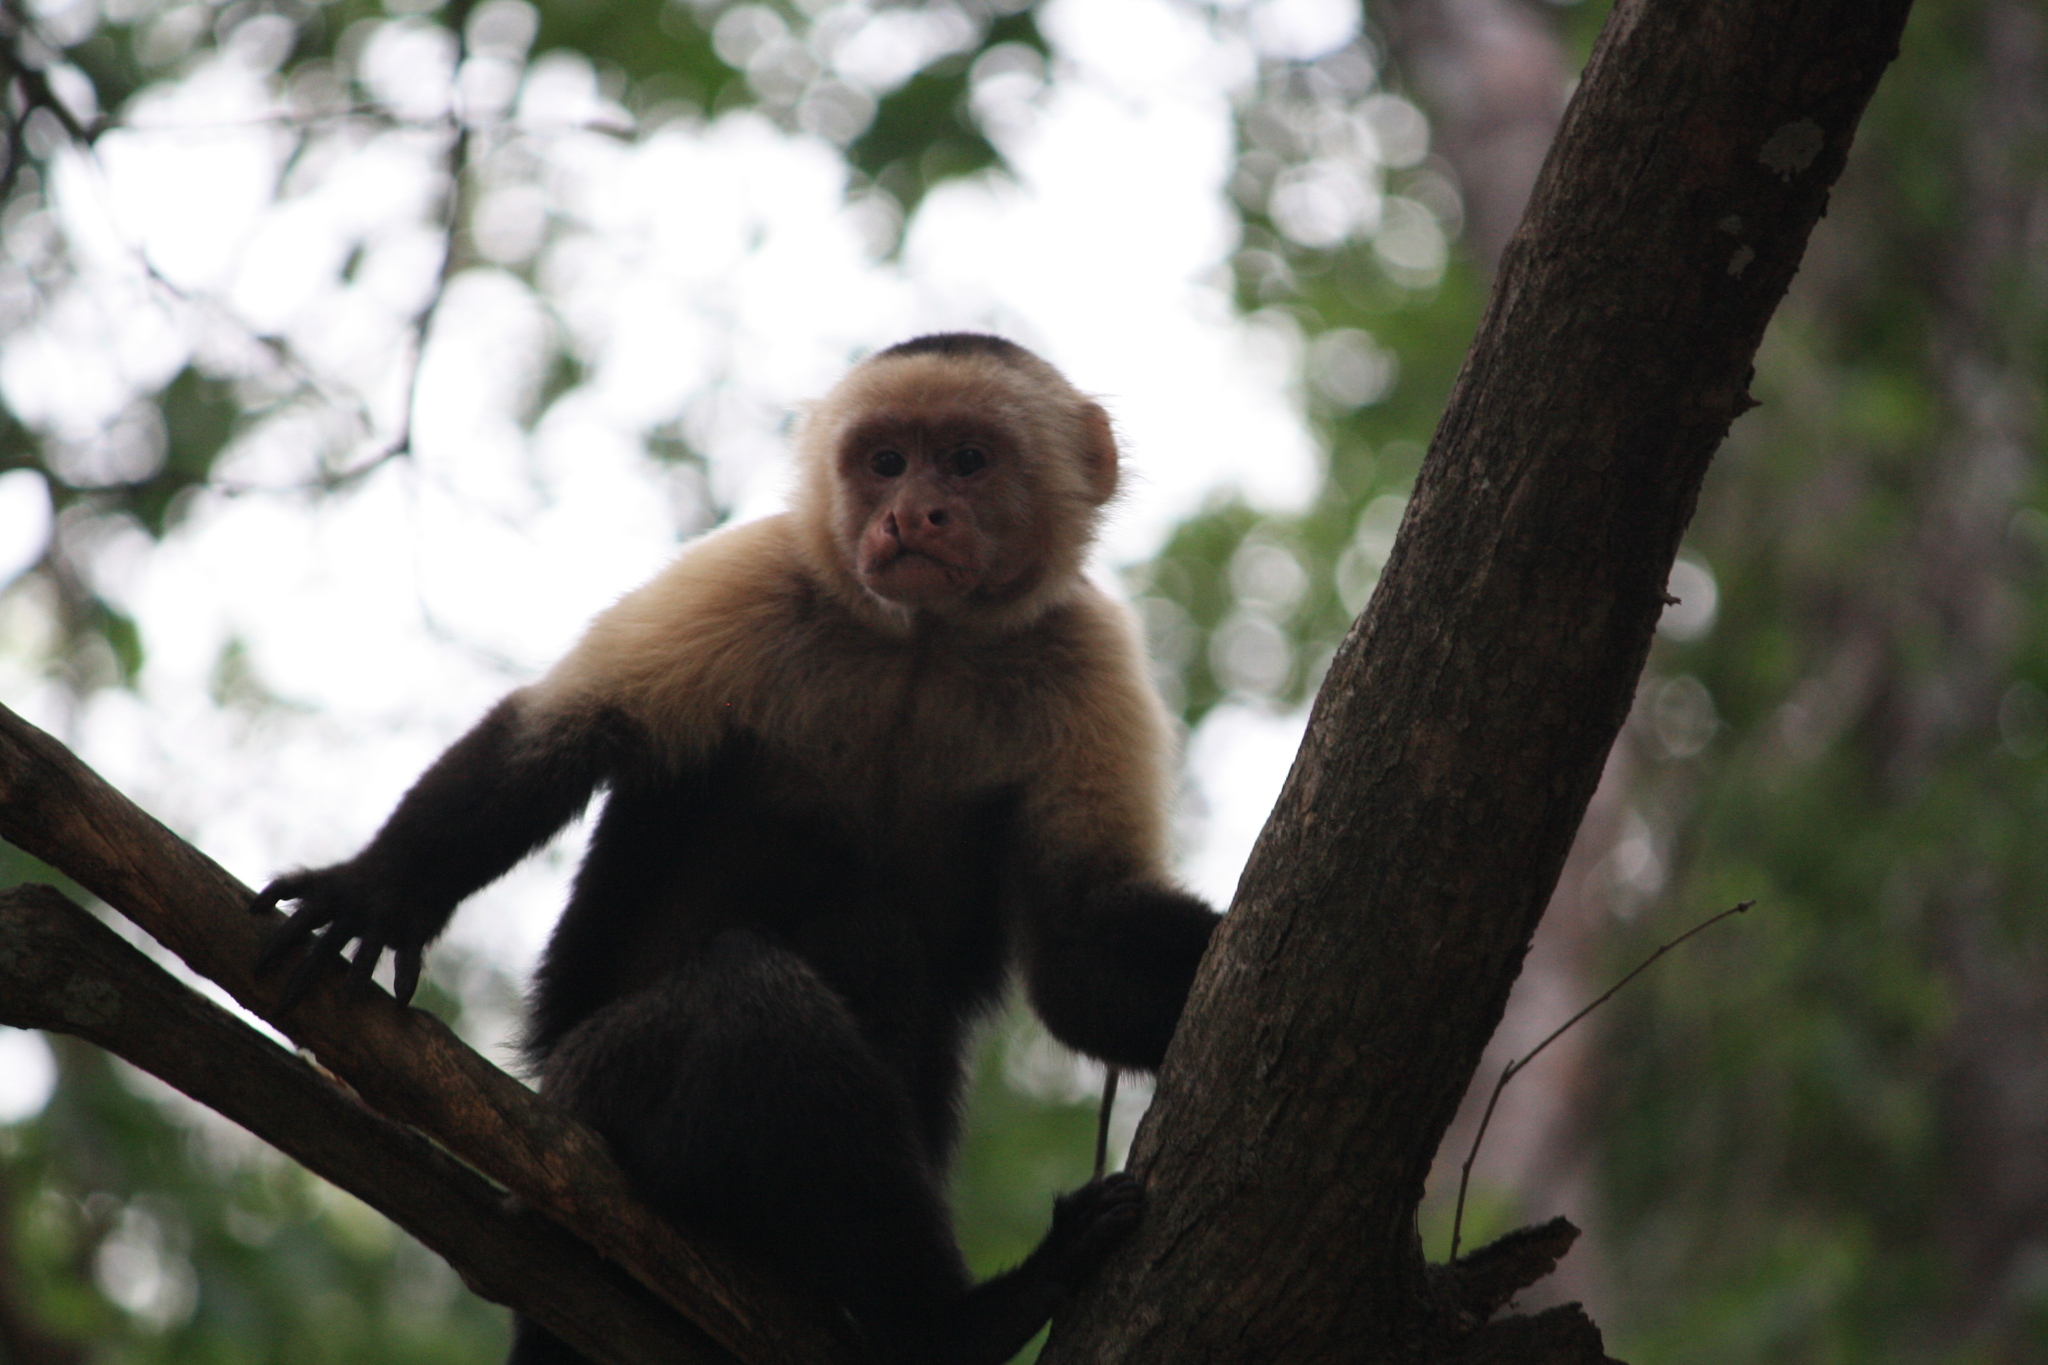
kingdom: Animalia
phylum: Chordata
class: Mammalia
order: Primates
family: Cebidae
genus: Cebus
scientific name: Cebus imitator
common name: Panamanian white-faced capuchin
